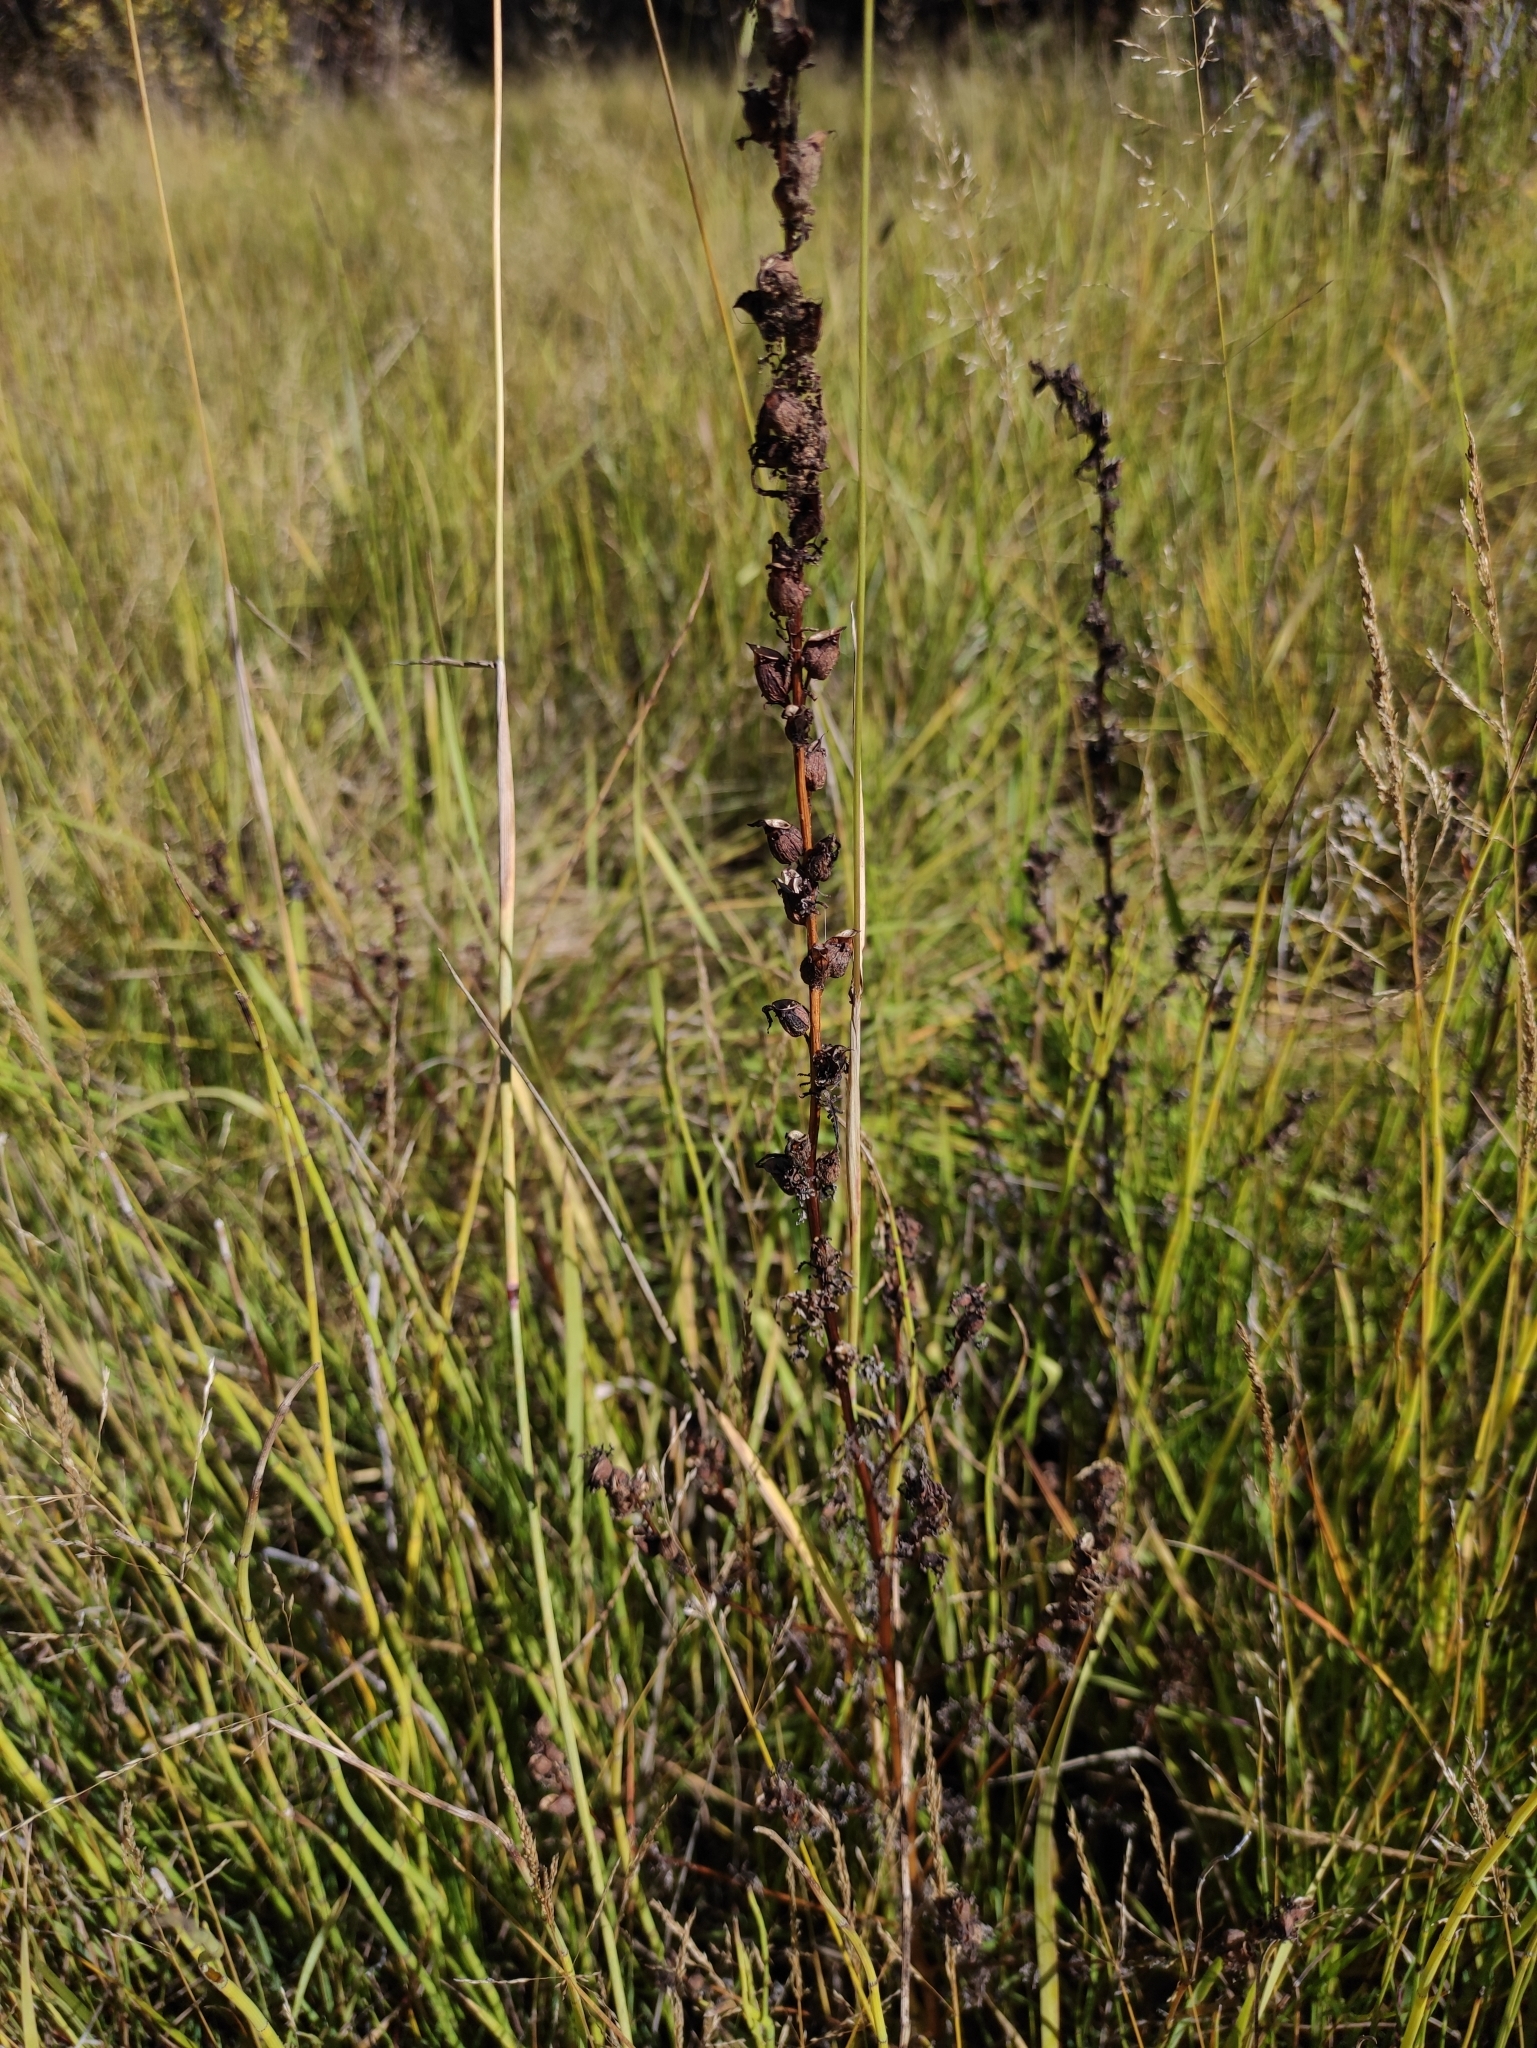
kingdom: Plantae
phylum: Tracheophyta
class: Magnoliopsida
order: Lamiales
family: Orobanchaceae
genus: Pedicularis
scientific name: Pedicularis karoi
